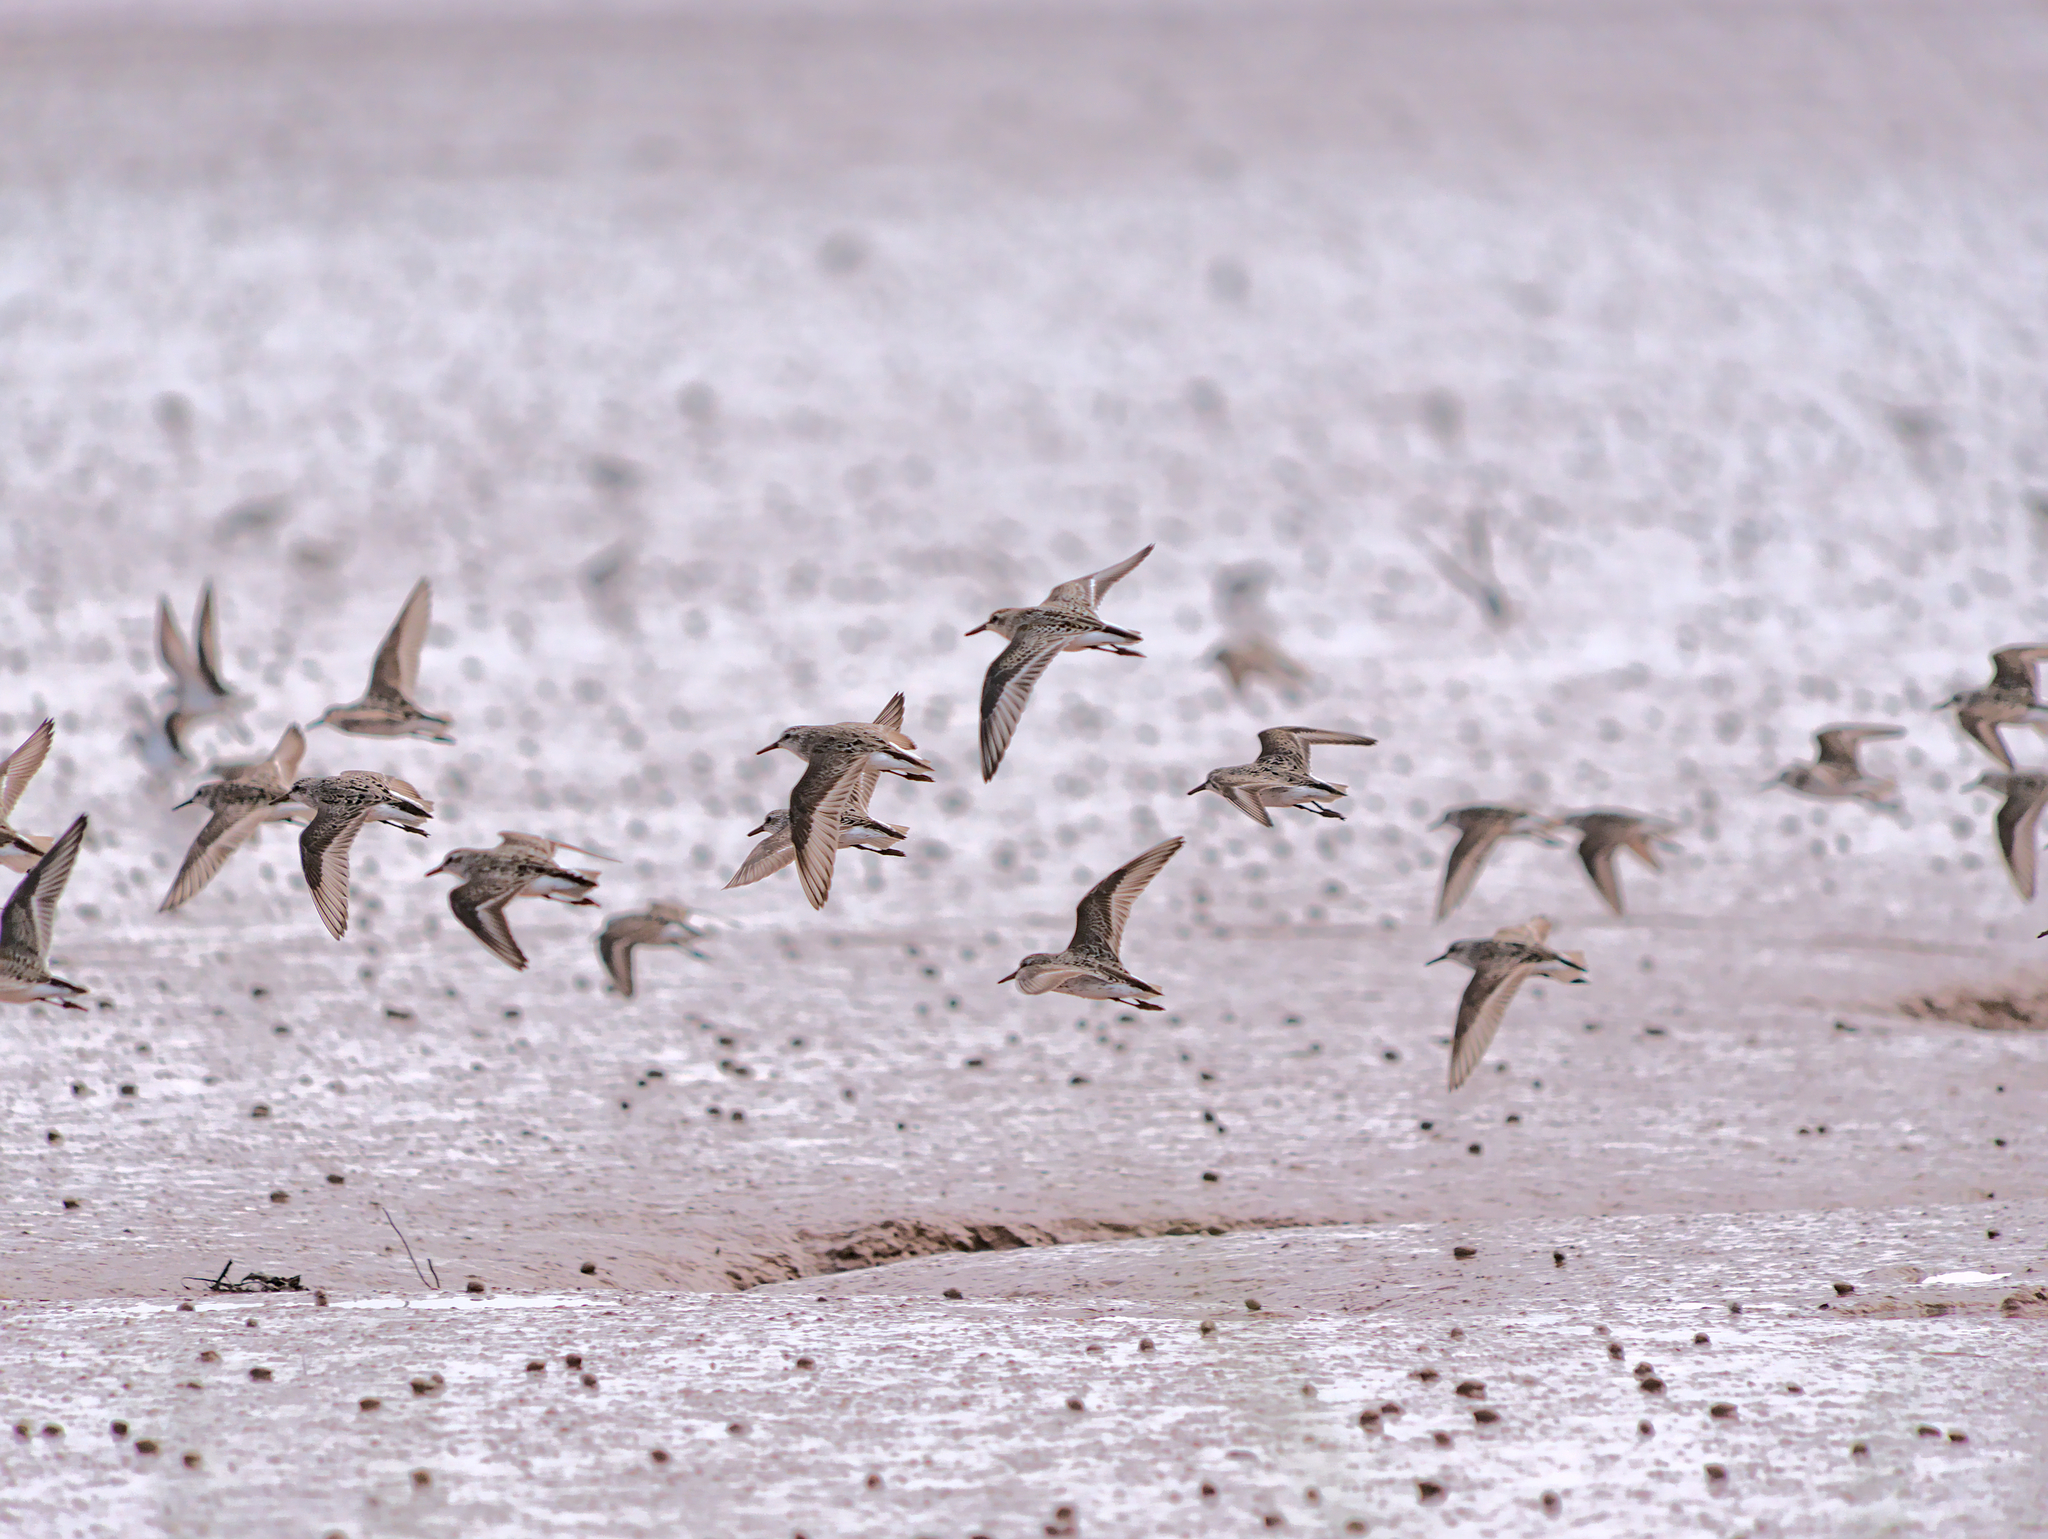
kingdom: Animalia
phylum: Chordata
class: Aves
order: Charadriiformes
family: Scolopacidae
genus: Calidris
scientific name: Calidris pusilla
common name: Semipalmated sandpiper
